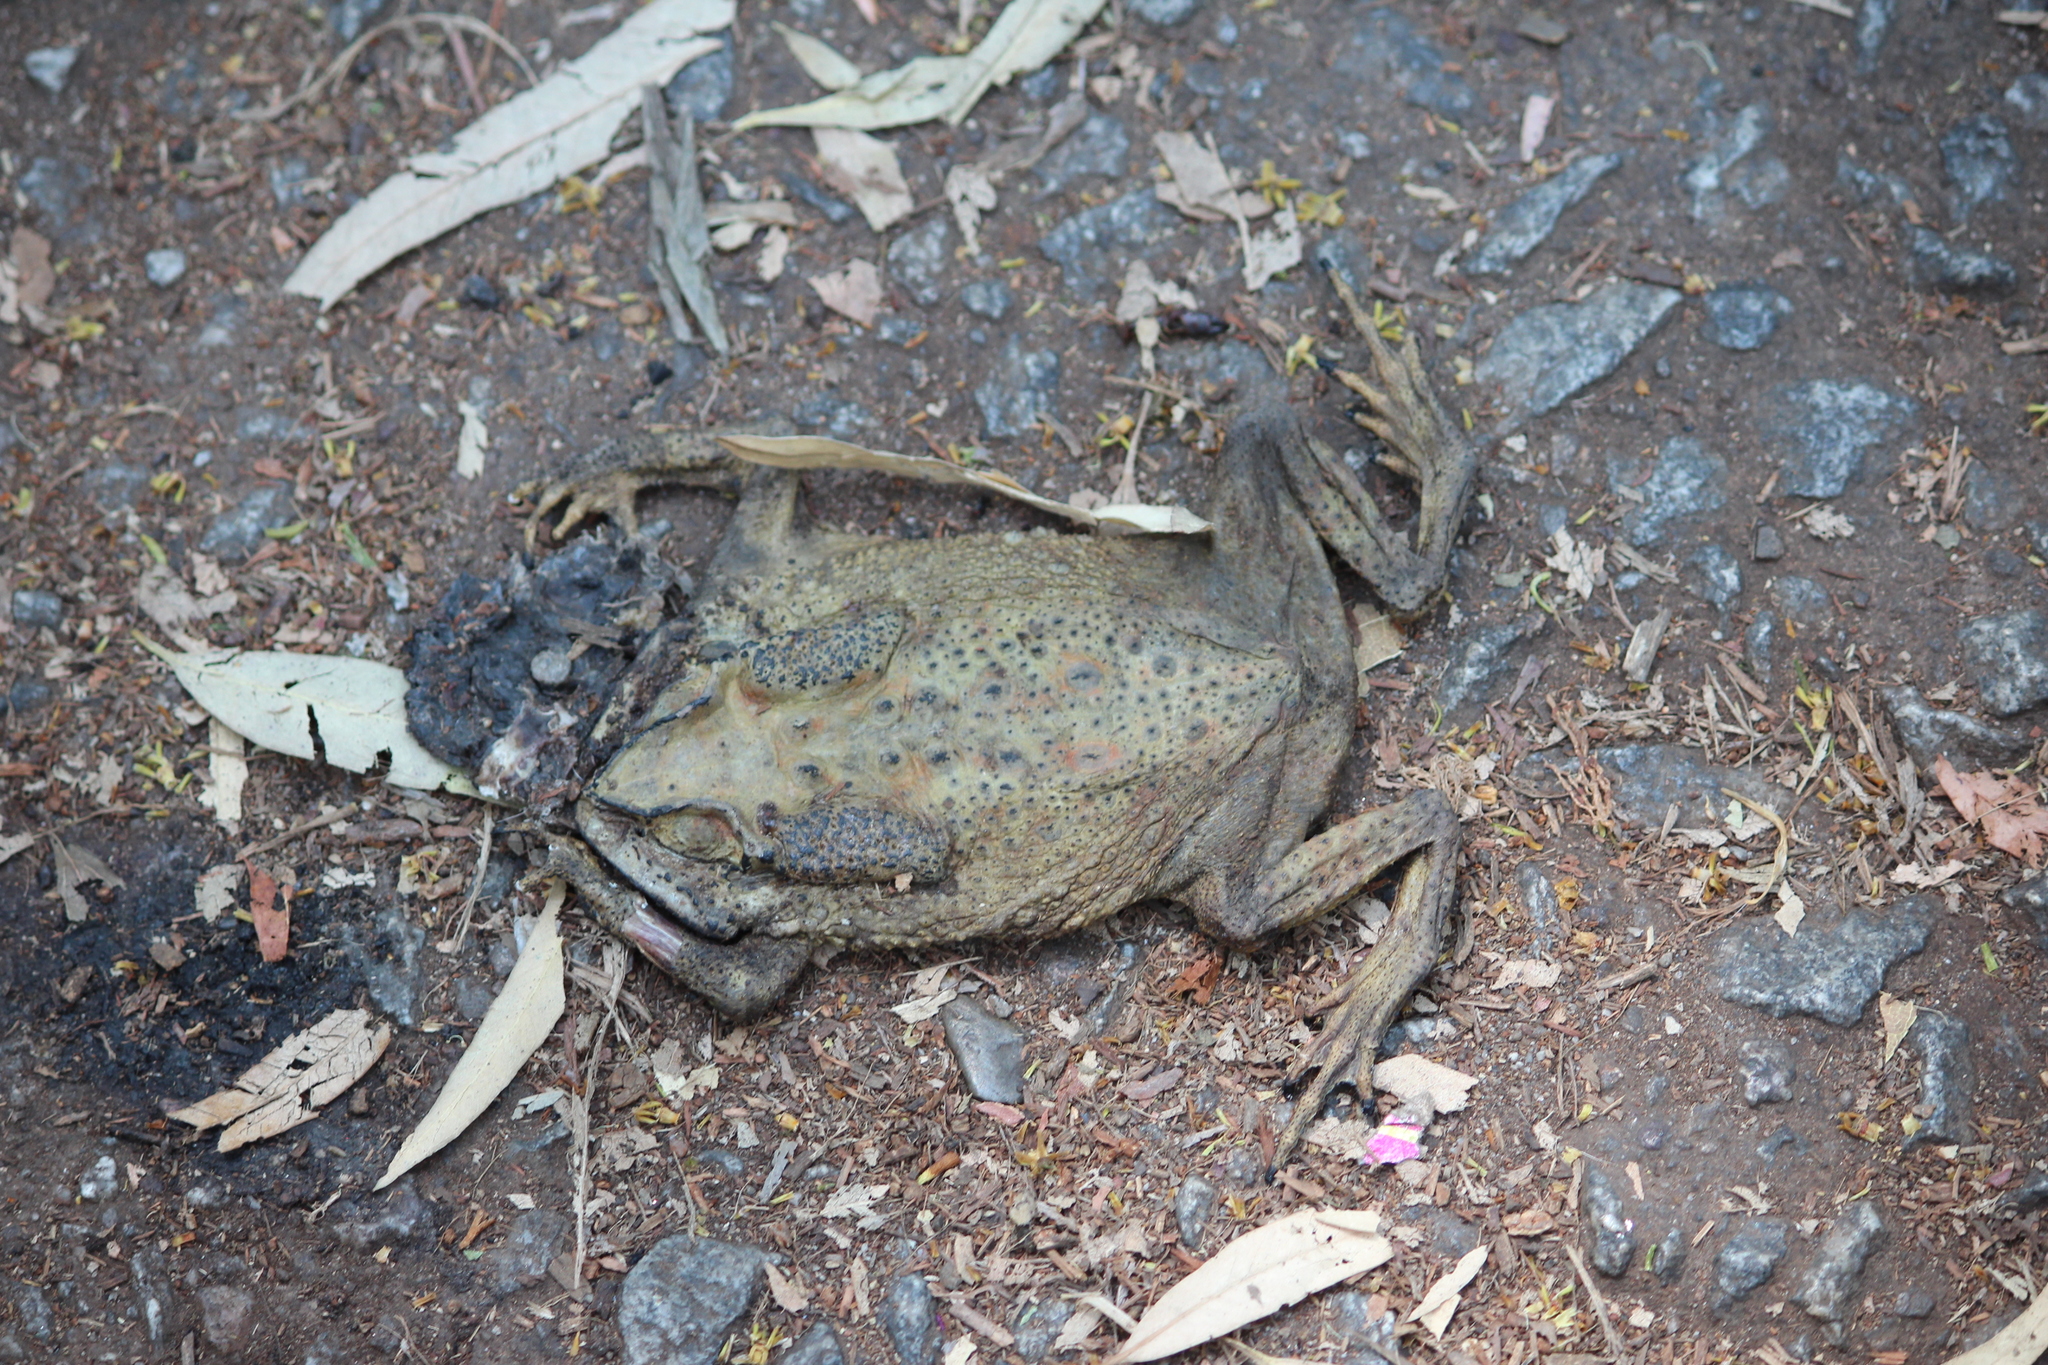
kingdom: Animalia
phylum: Chordata
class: Amphibia
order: Anura
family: Bufonidae
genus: Duttaphrynus
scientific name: Duttaphrynus melanostictus
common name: Common sunda toad
